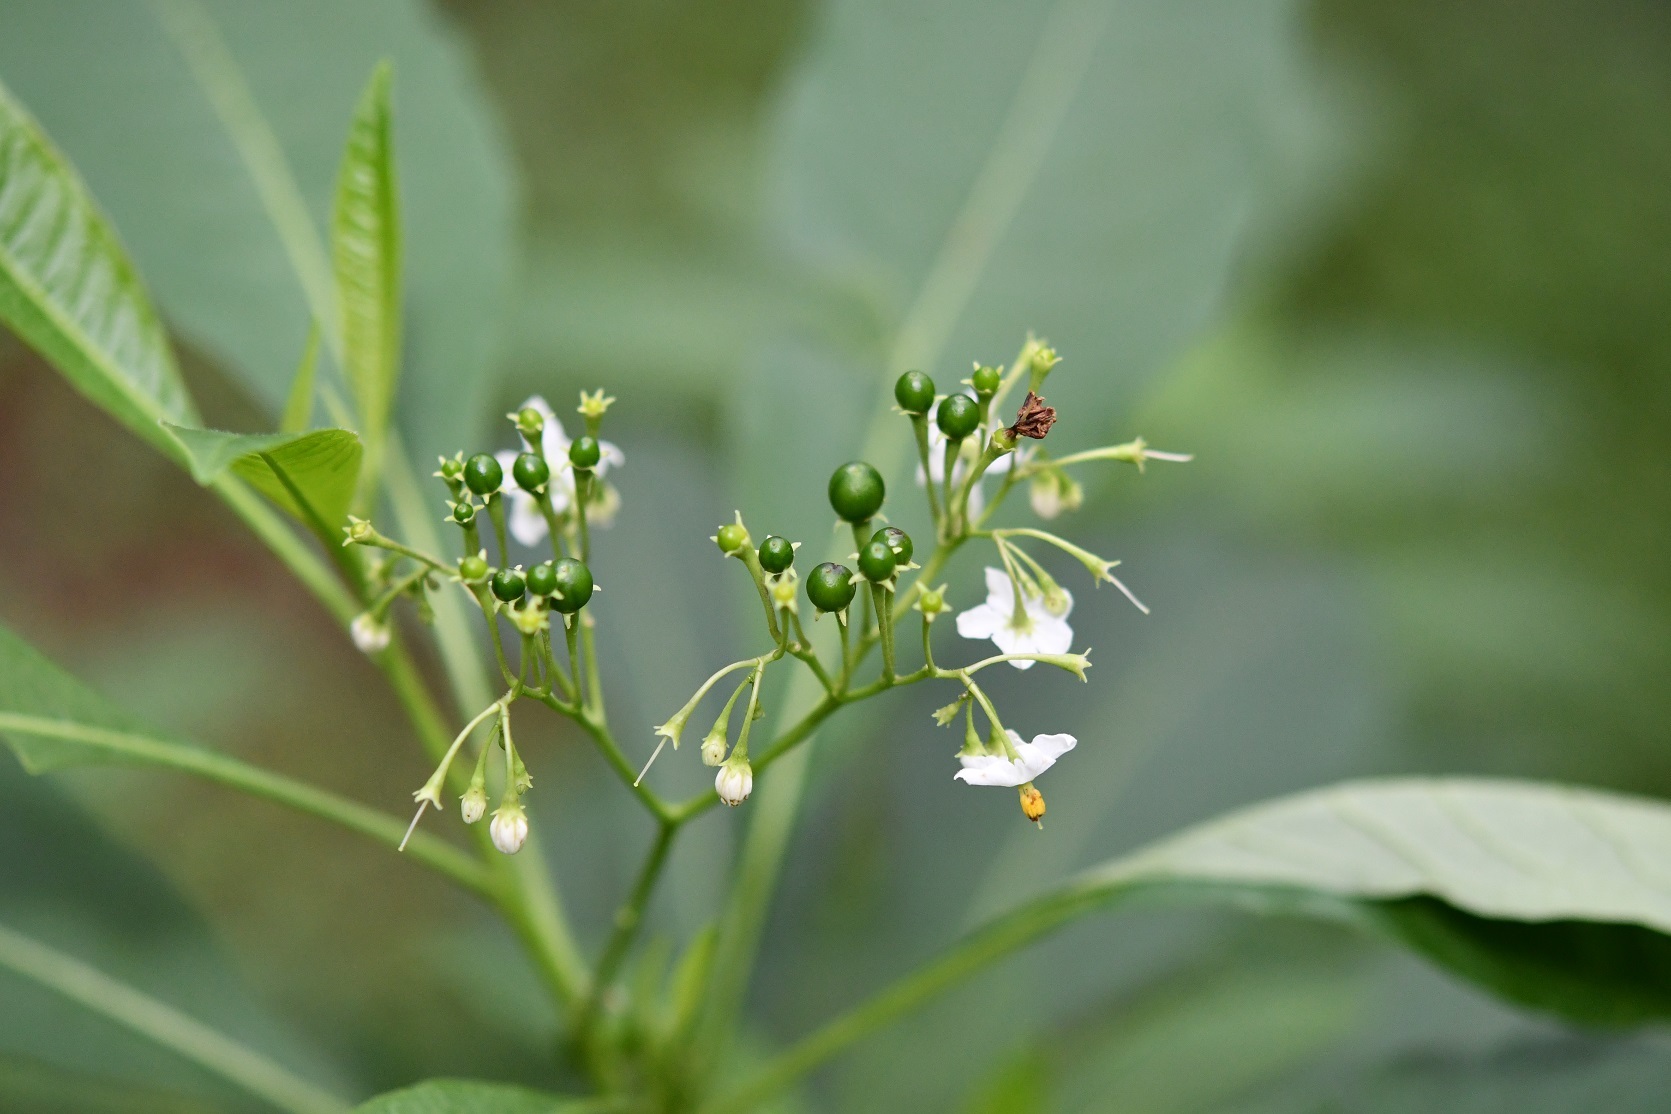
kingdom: Plantae
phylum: Tracheophyta
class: Magnoliopsida
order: Solanales
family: Solanaceae
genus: Solanum
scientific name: Solanum pubigerum
